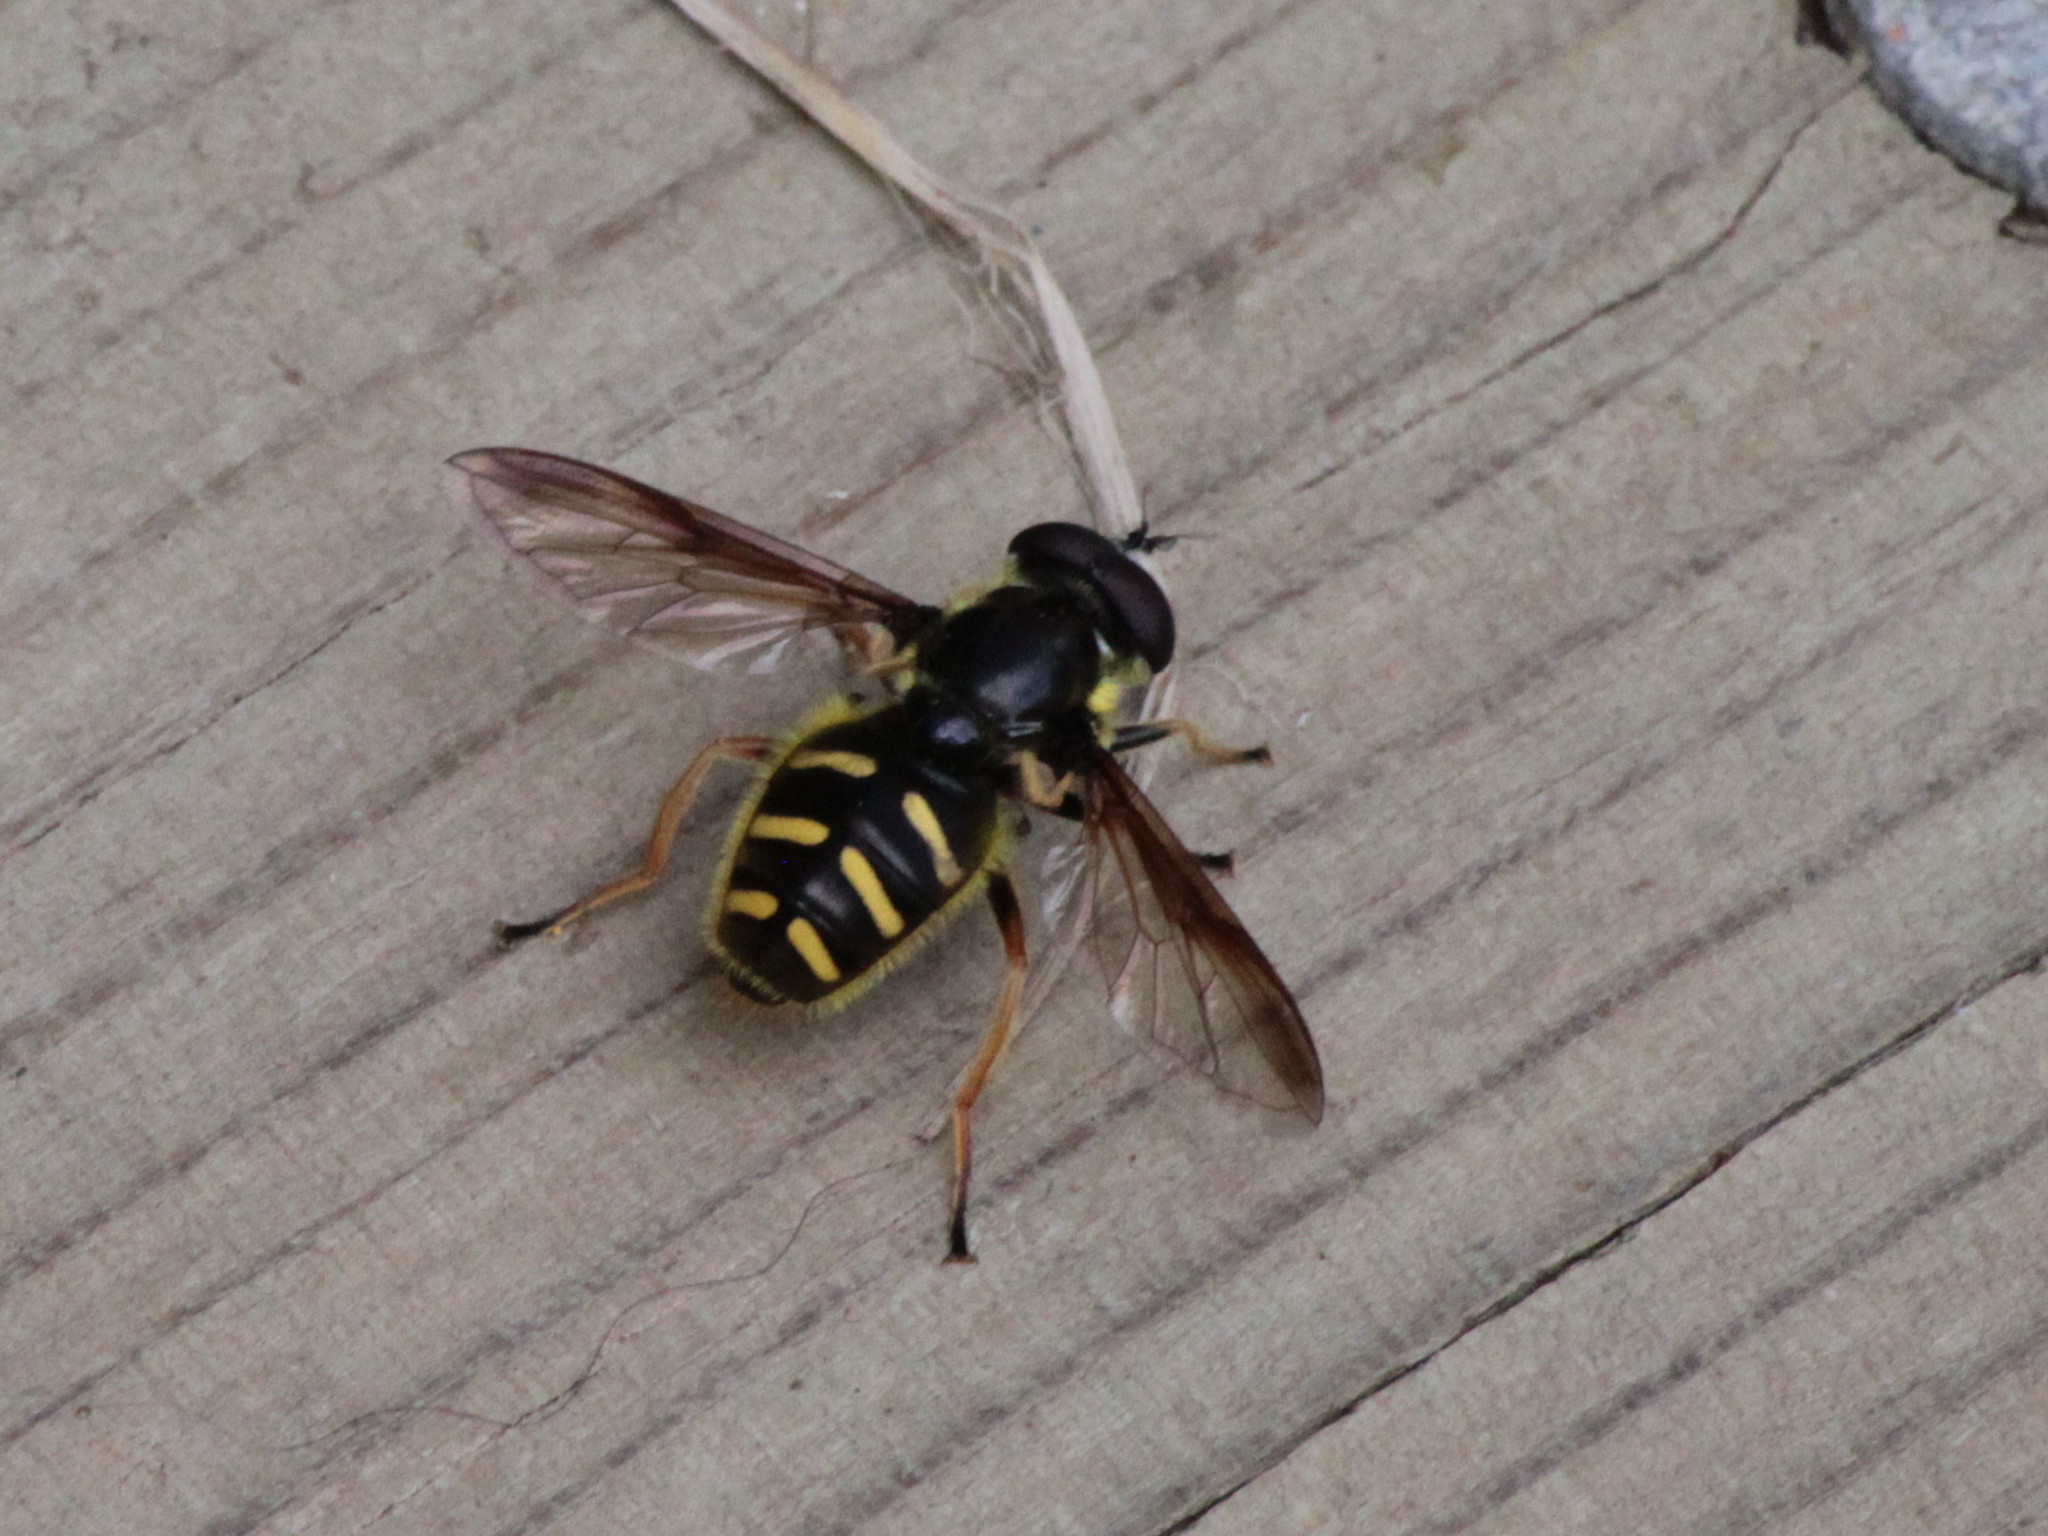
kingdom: Animalia
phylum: Arthropoda
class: Insecta
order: Diptera
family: Syrphidae
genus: Sericomyia
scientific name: Sericomyia chrysotoxoides
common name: Oblique-banded pond fly
